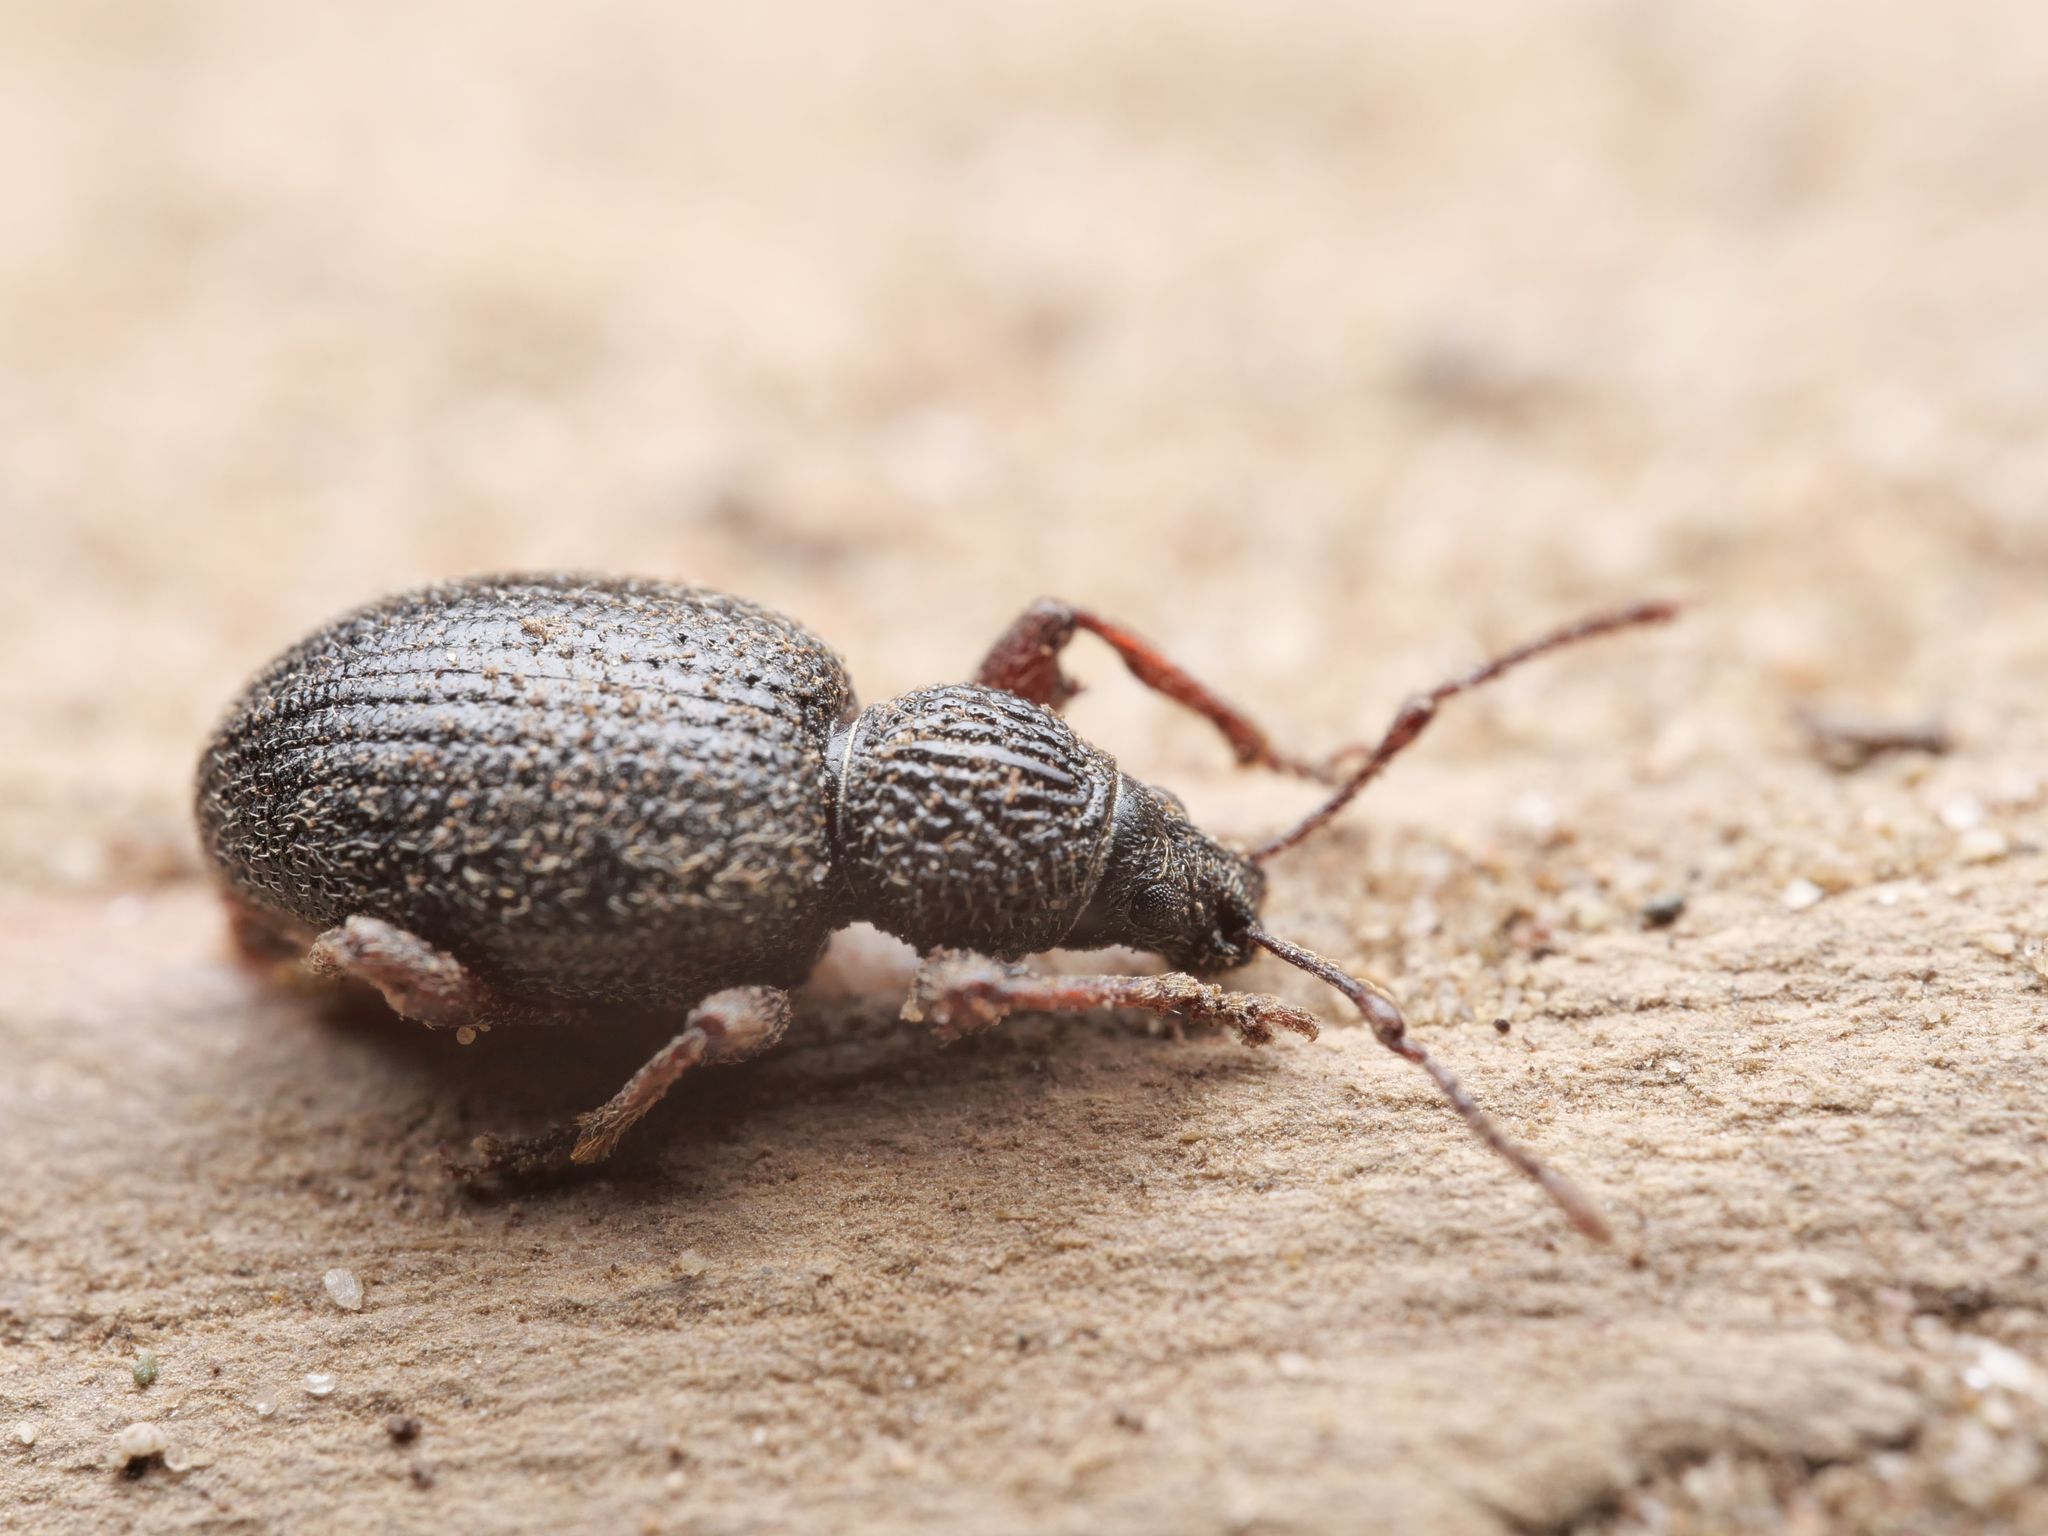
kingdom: Animalia
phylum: Arthropoda
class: Insecta
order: Coleoptera
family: Curculionidae
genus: Otiorhynchus
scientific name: Otiorhynchus ovatus
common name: Strawberry root weevil
